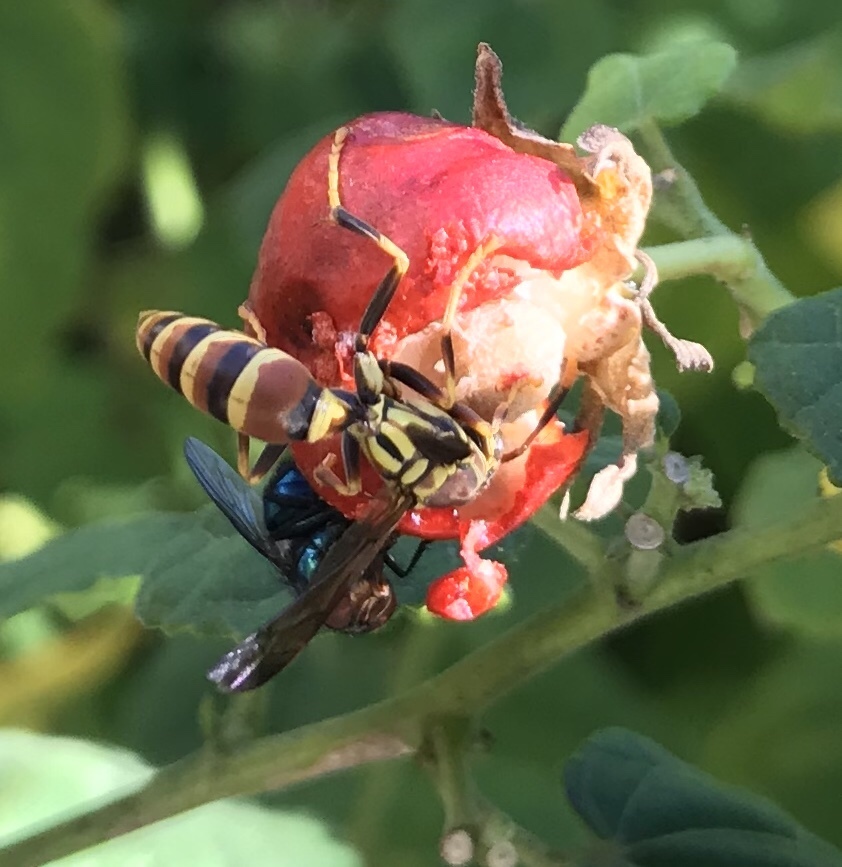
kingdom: Animalia
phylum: Arthropoda
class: Insecta
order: Hymenoptera
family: Eumenidae
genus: Polistes
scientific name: Polistes exclamans
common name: Paper wasp
